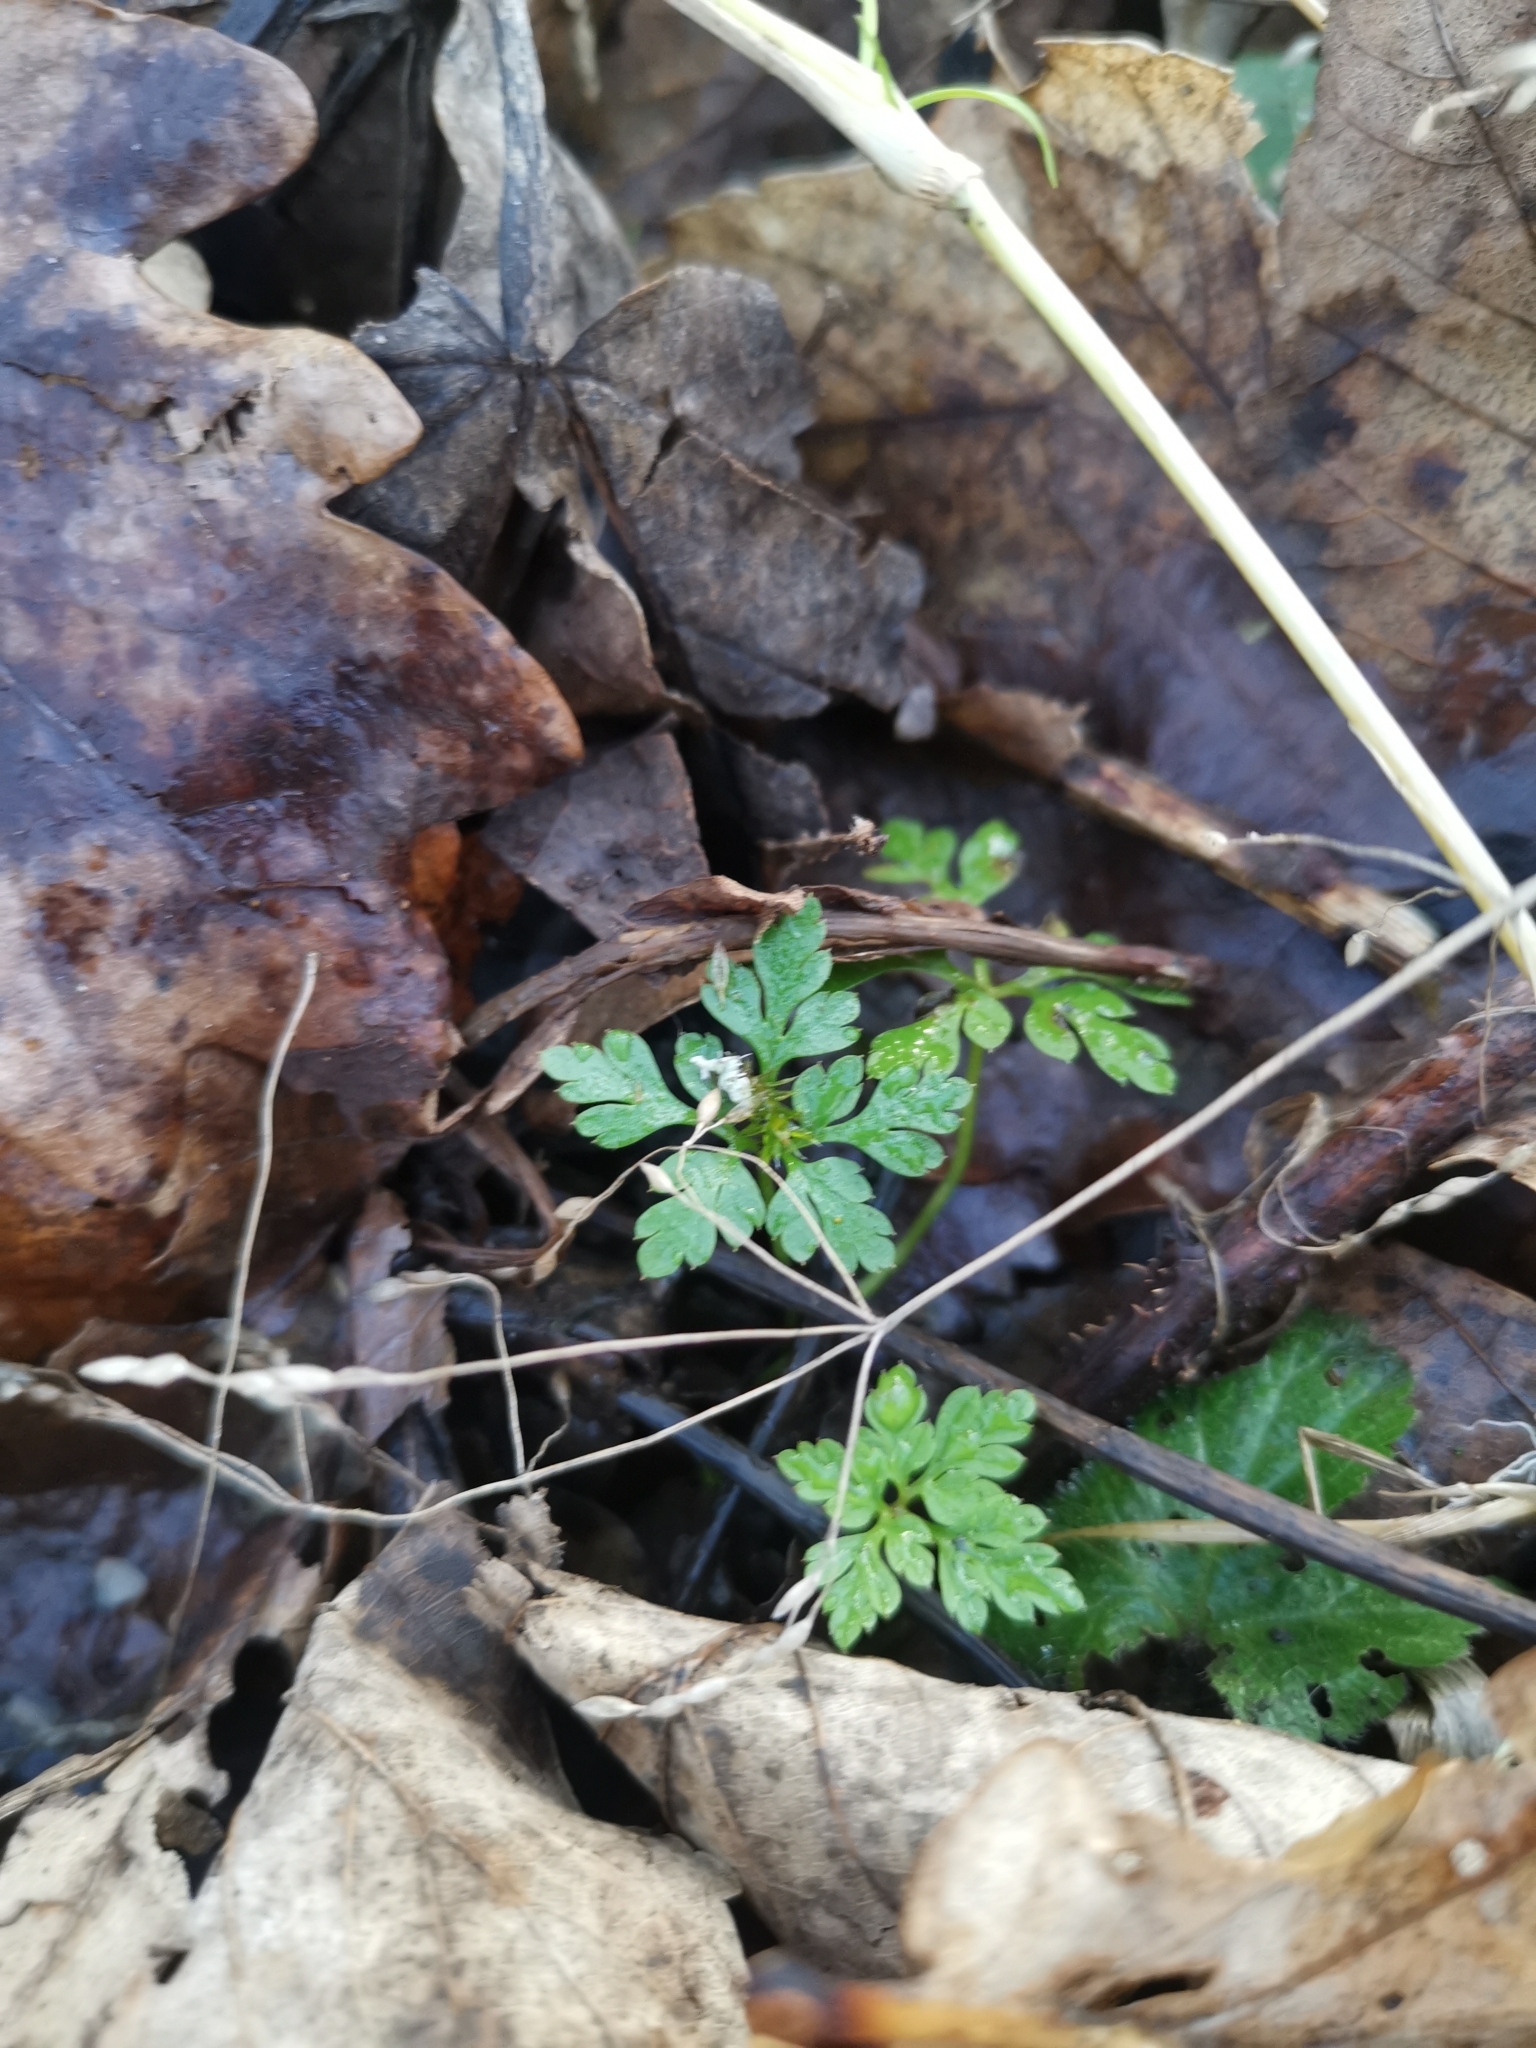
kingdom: Plantae
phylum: Tracheophyta
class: Magnoliopsida
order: Geraniales
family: Geraniaceae
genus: Geranium
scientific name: Geranium robertianum
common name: Herb-robert
